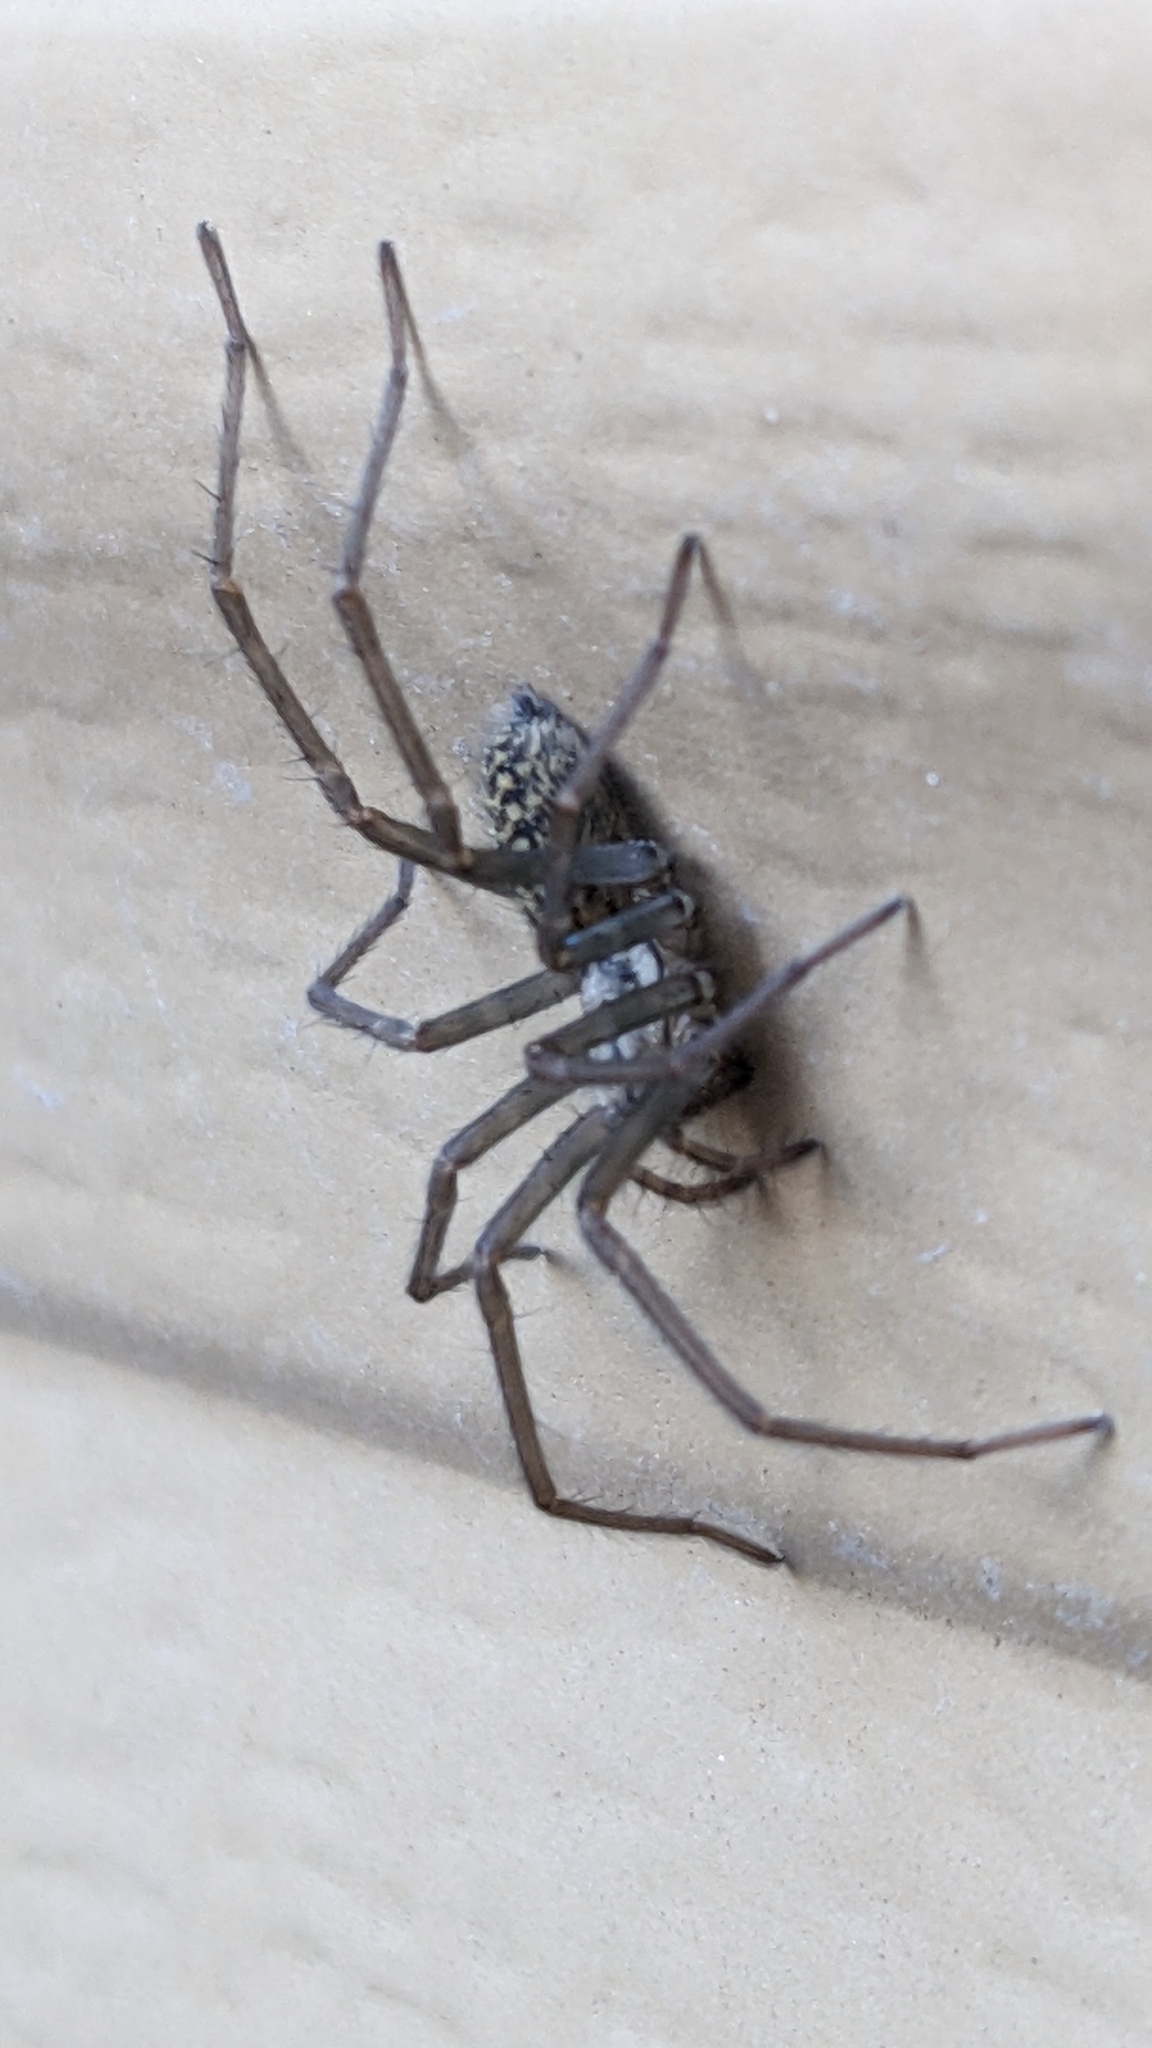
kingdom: Animalia
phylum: Arthropoda
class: Arachnida
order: Araneae
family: Agelenidae
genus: Eratigena
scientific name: Eratigena duellica
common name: Giant house spider
